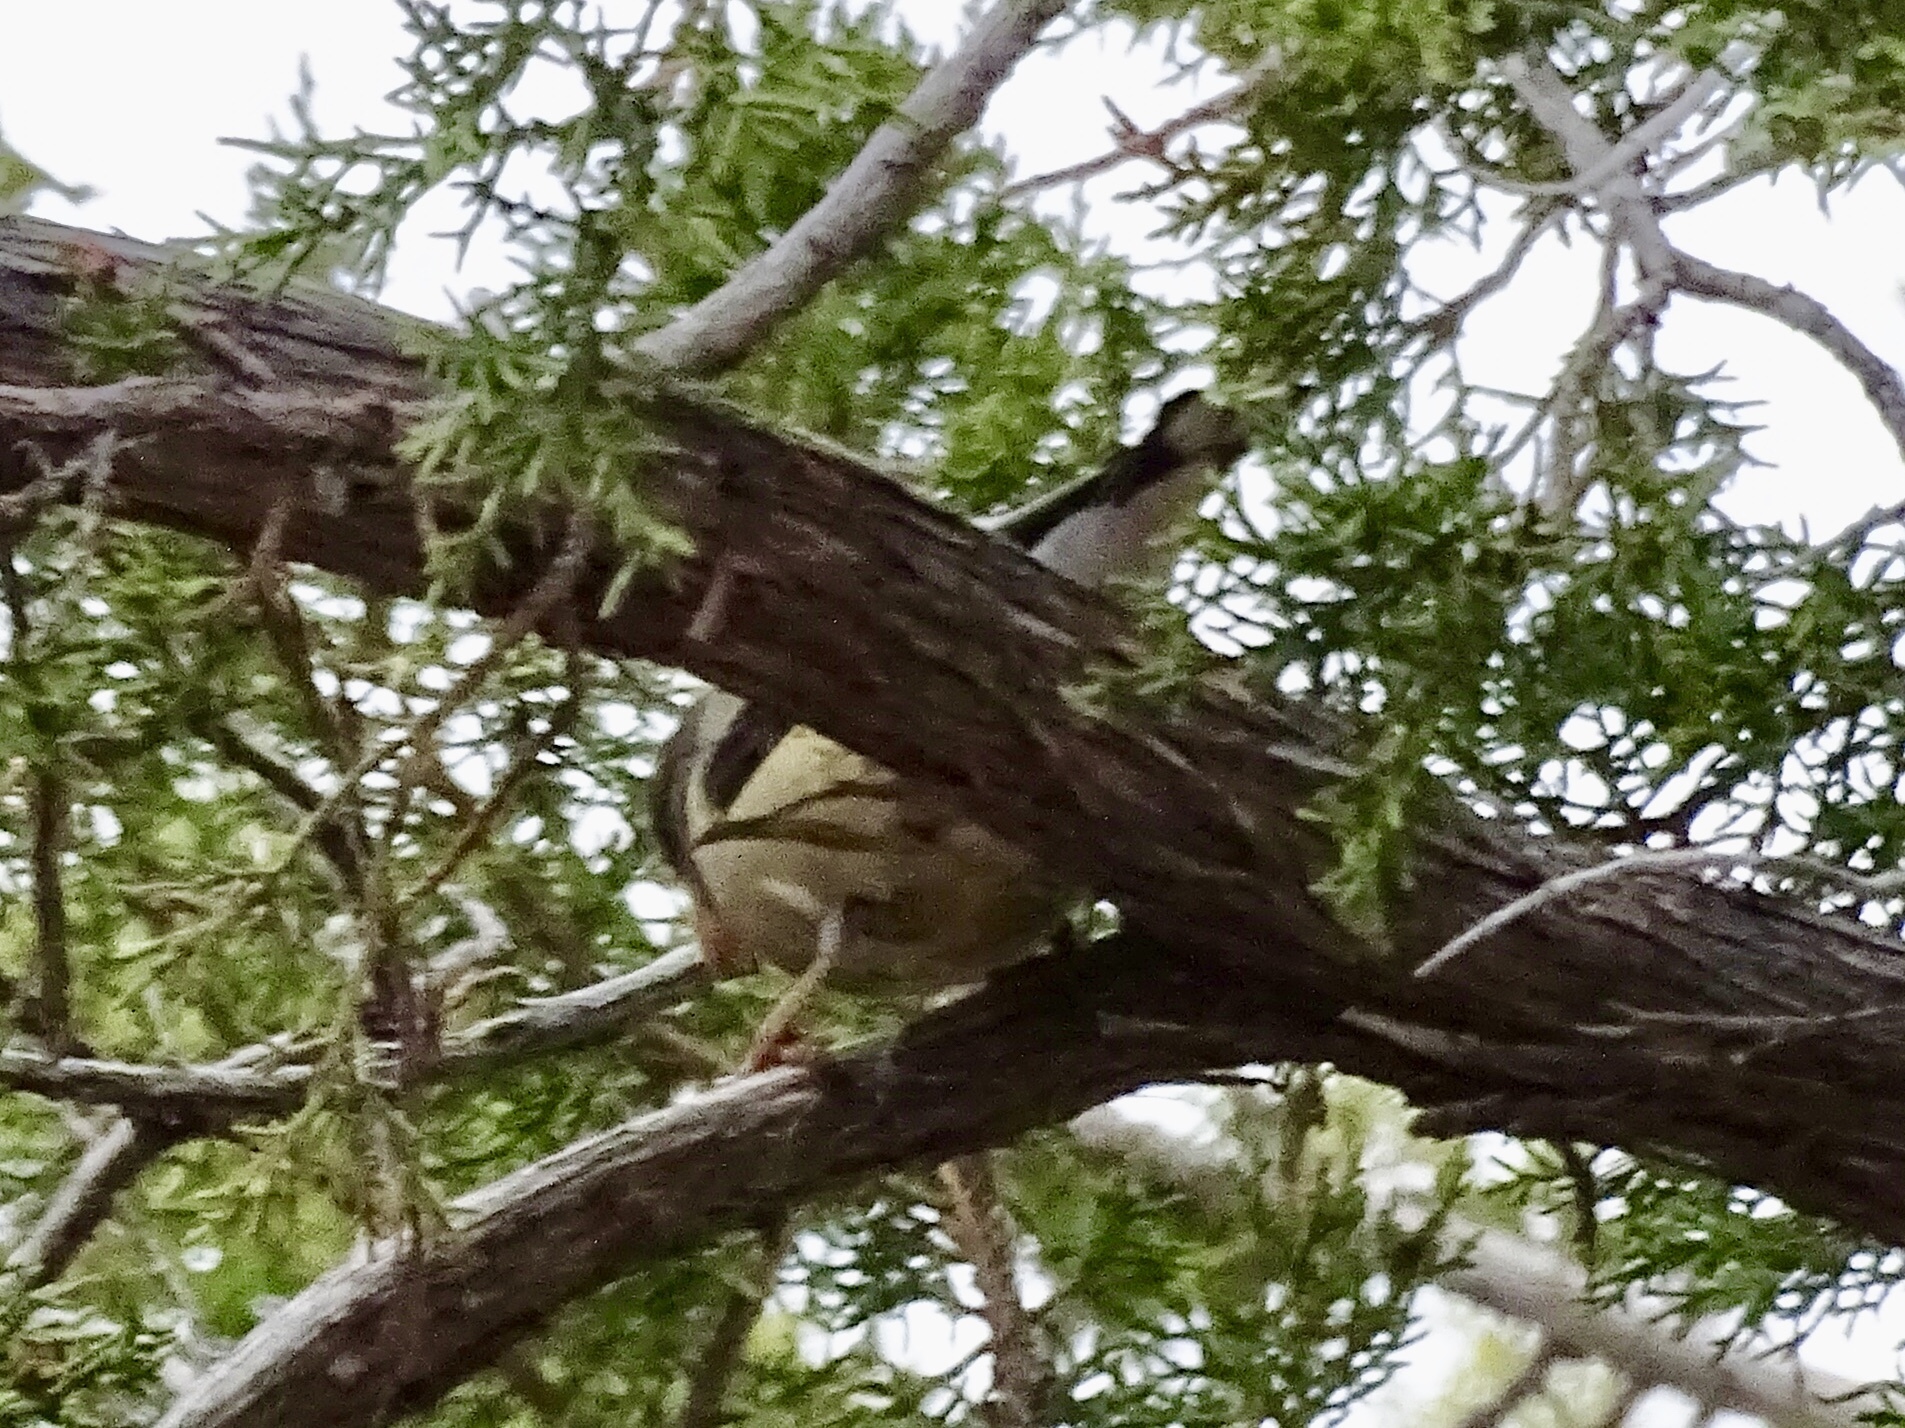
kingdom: Animalia
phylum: Chordata
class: Aves
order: Passeriformes
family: Fringillidae
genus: Hesperiphona
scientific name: Hesperiphona vespertina
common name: Evening grosbeak
